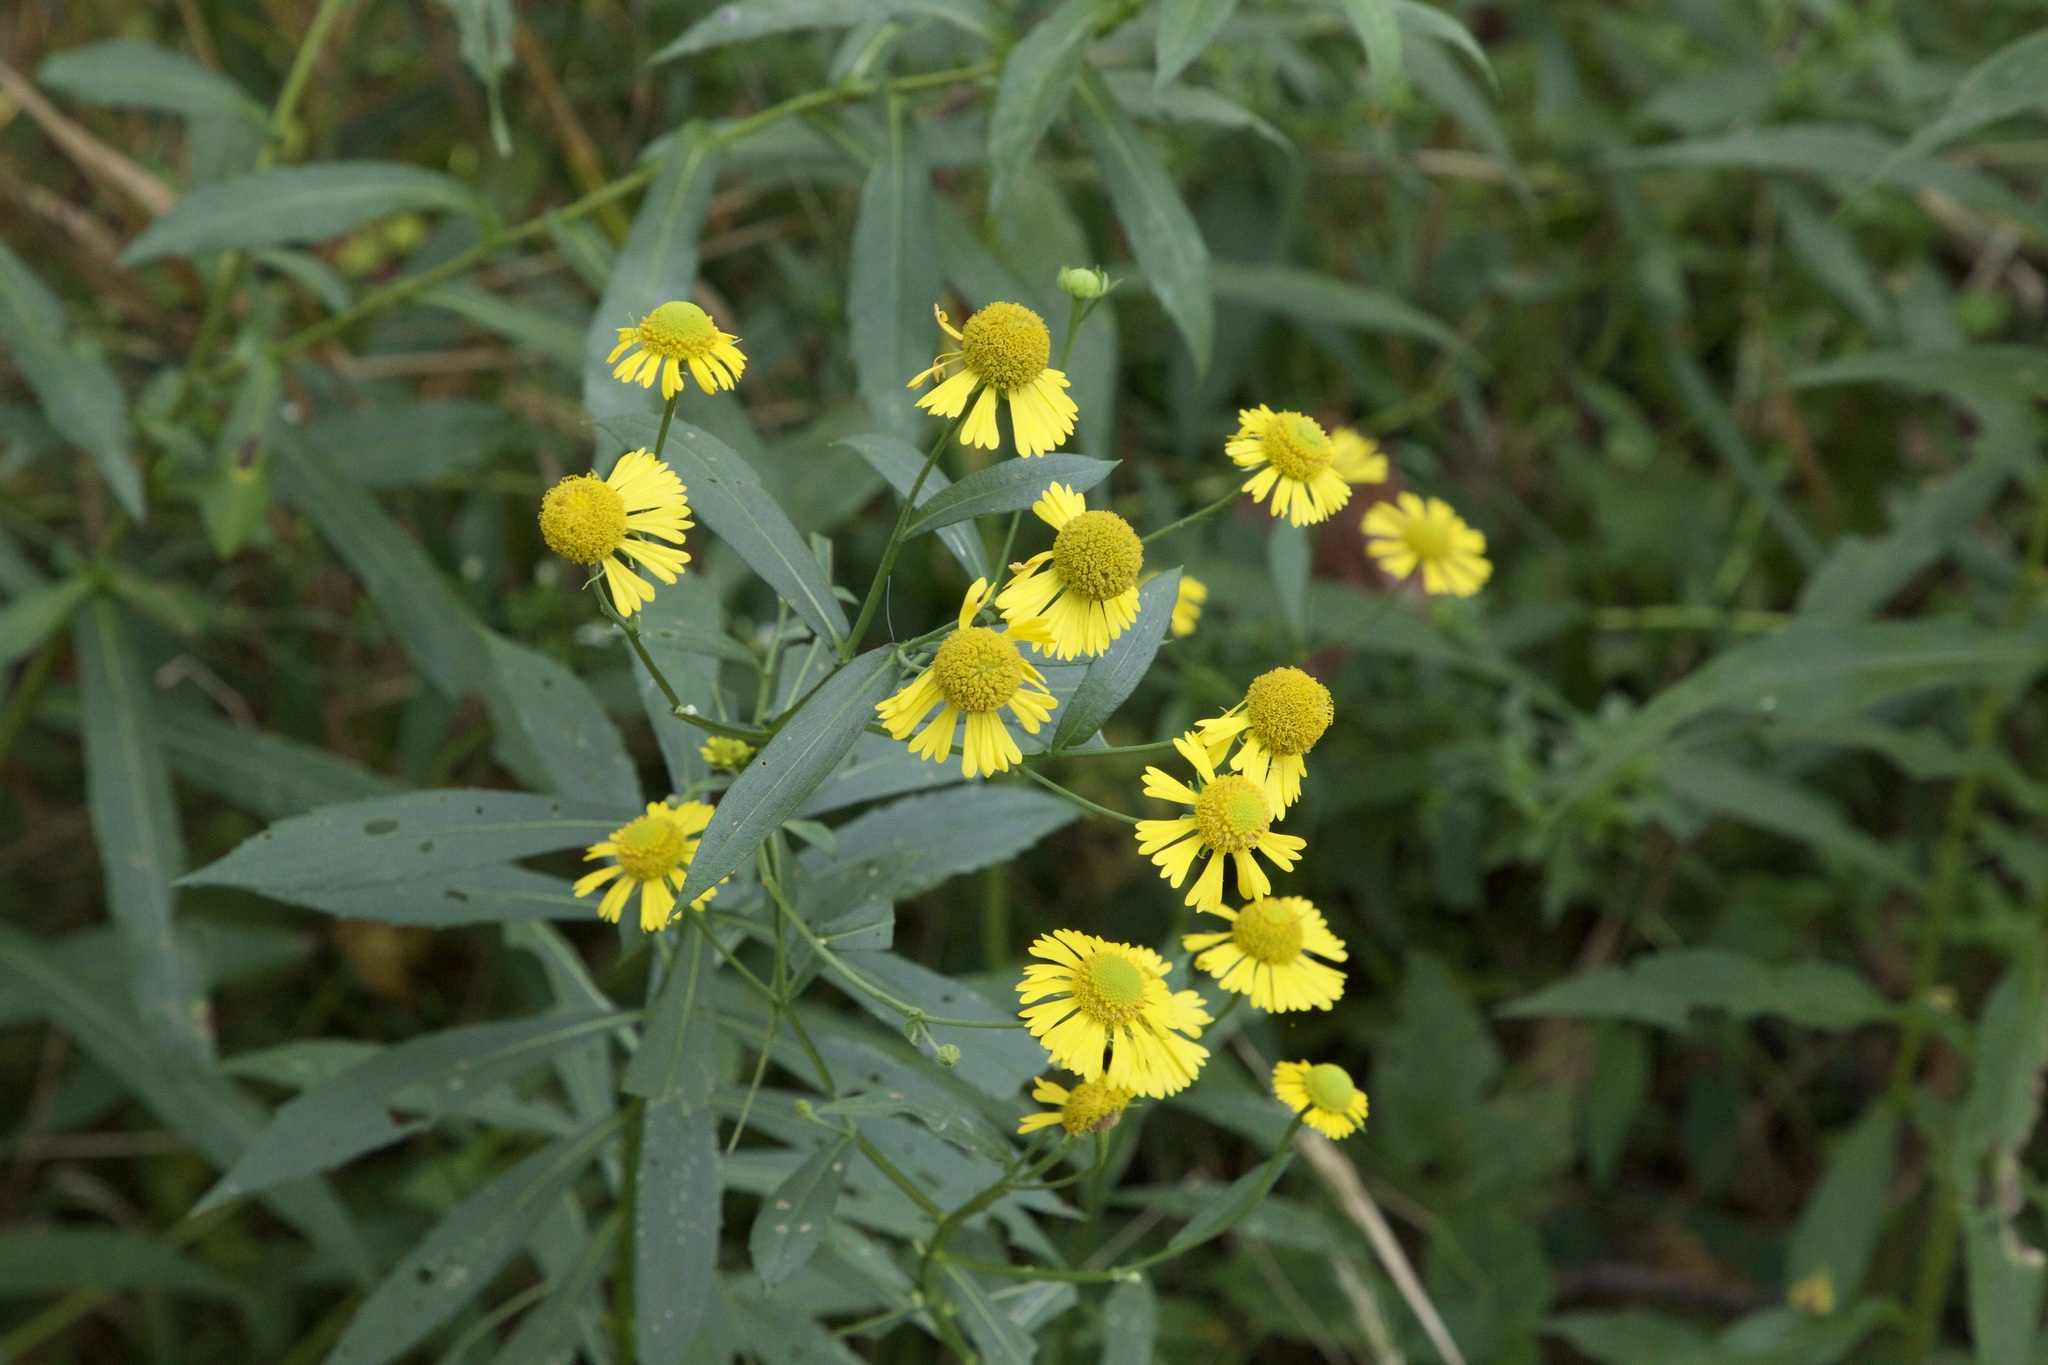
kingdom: Plantae
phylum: Tracheophyta
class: Magnoliopsida
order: Asterales
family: Asteraceae
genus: Helenium
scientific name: Helenium autumnale
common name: Sneezeweed
